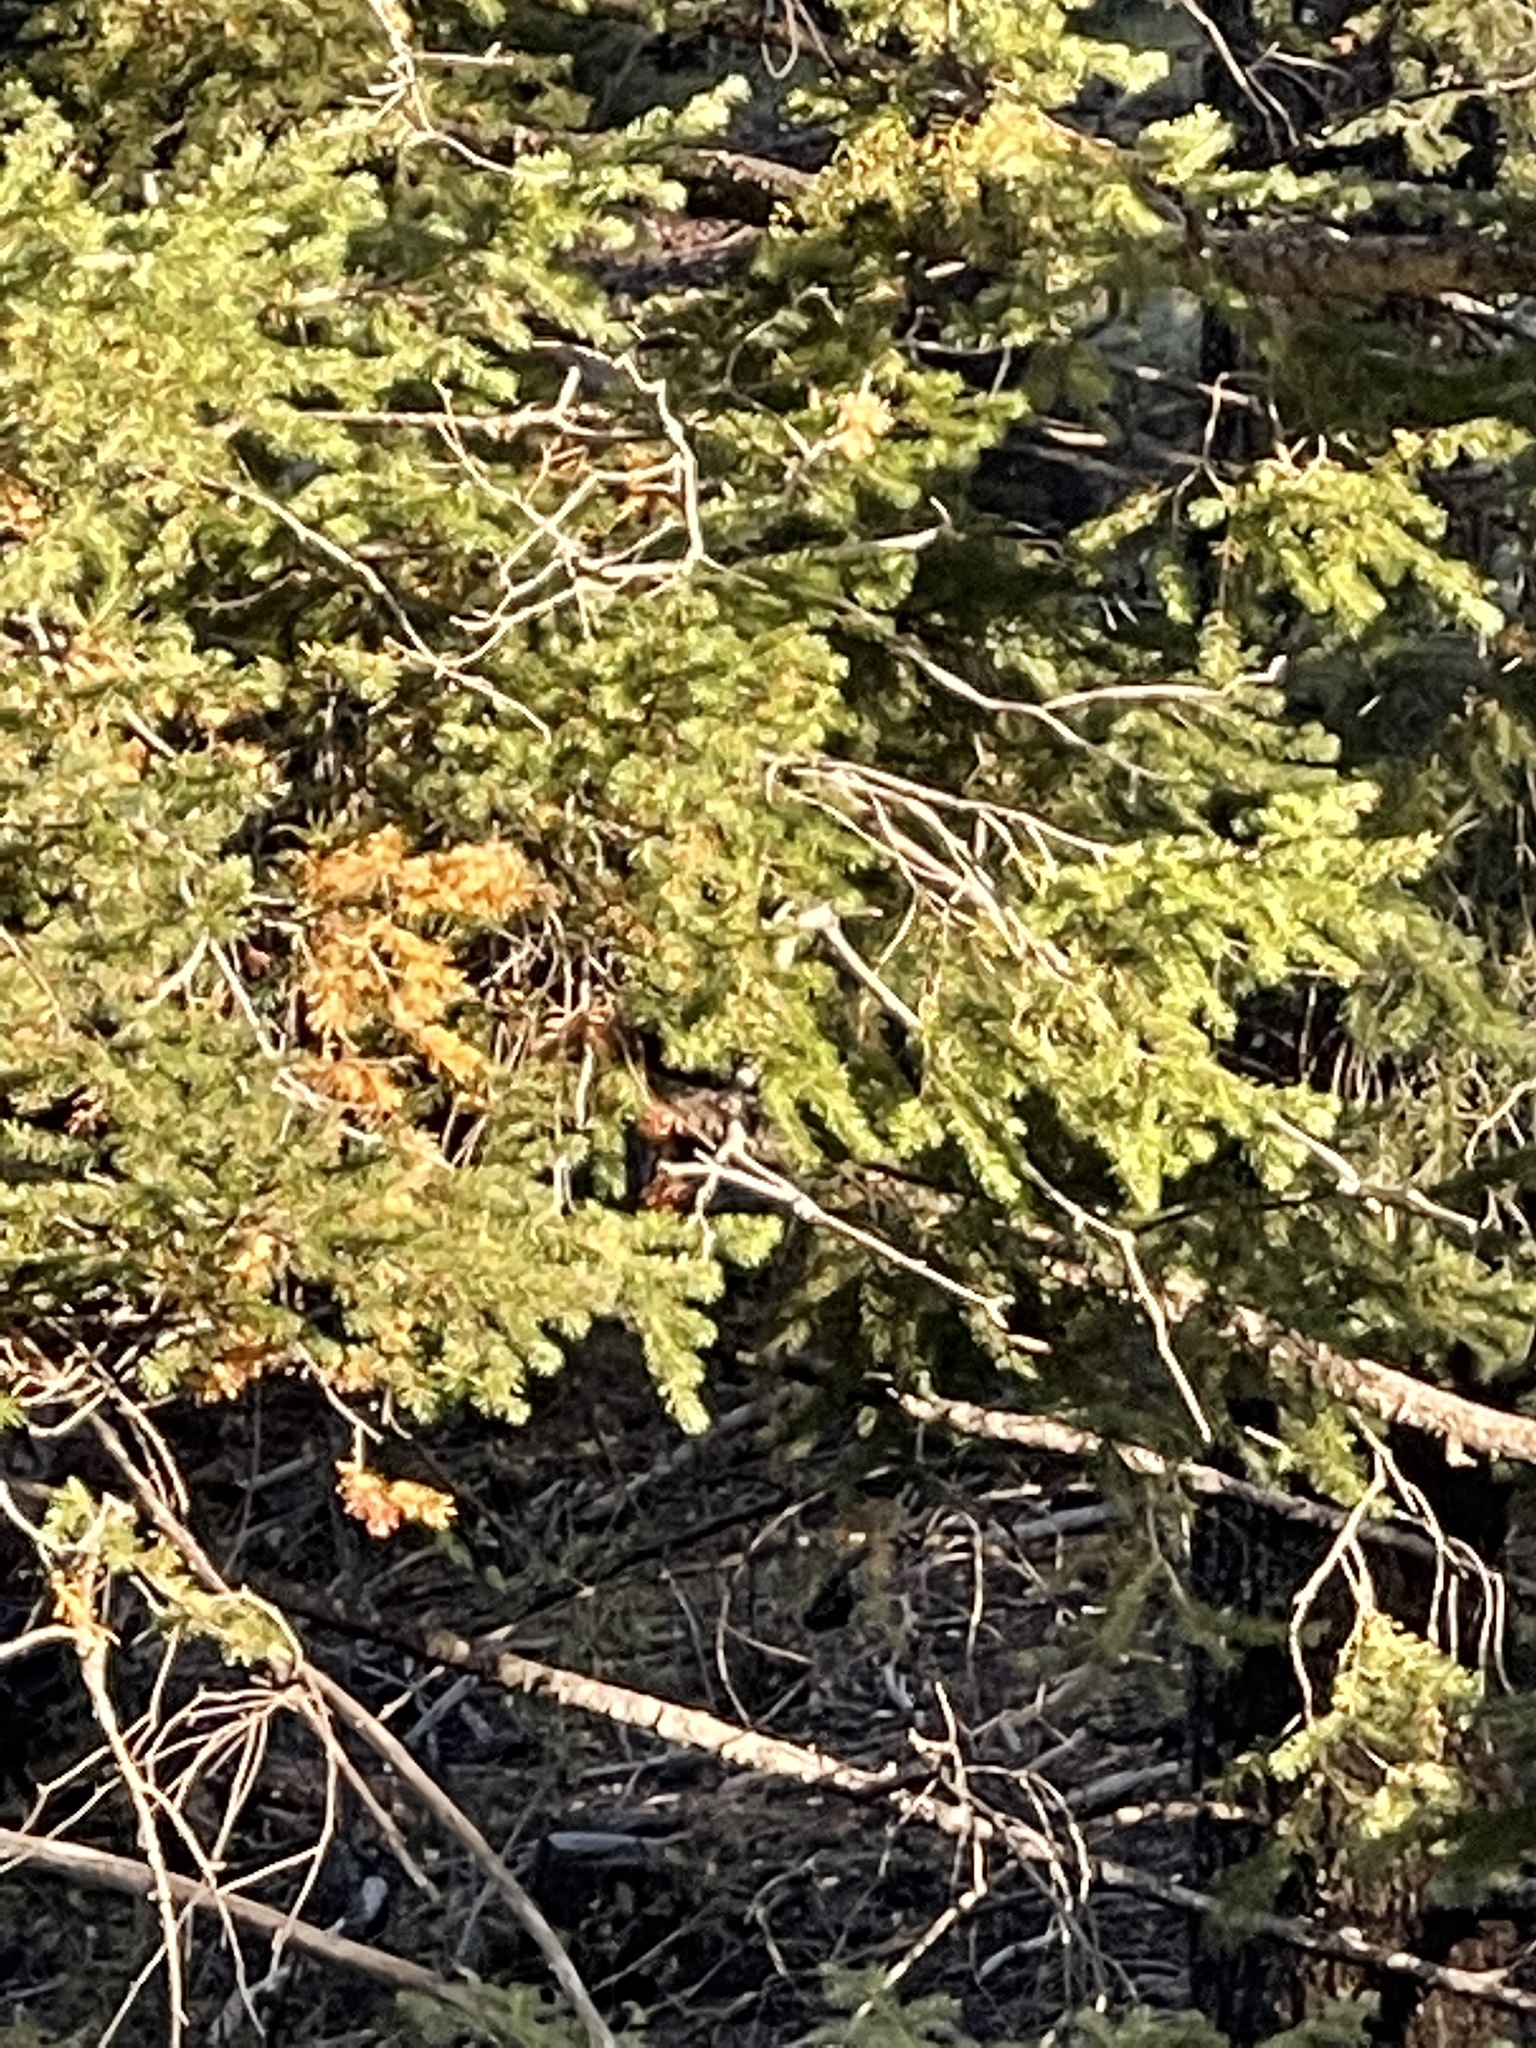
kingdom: Plantae
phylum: Tracheophyta
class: Pinopsida
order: Pinales
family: Pinaceae
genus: Pseudotsuga
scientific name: Pseudotsuga menziesii
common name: Douglas fir
